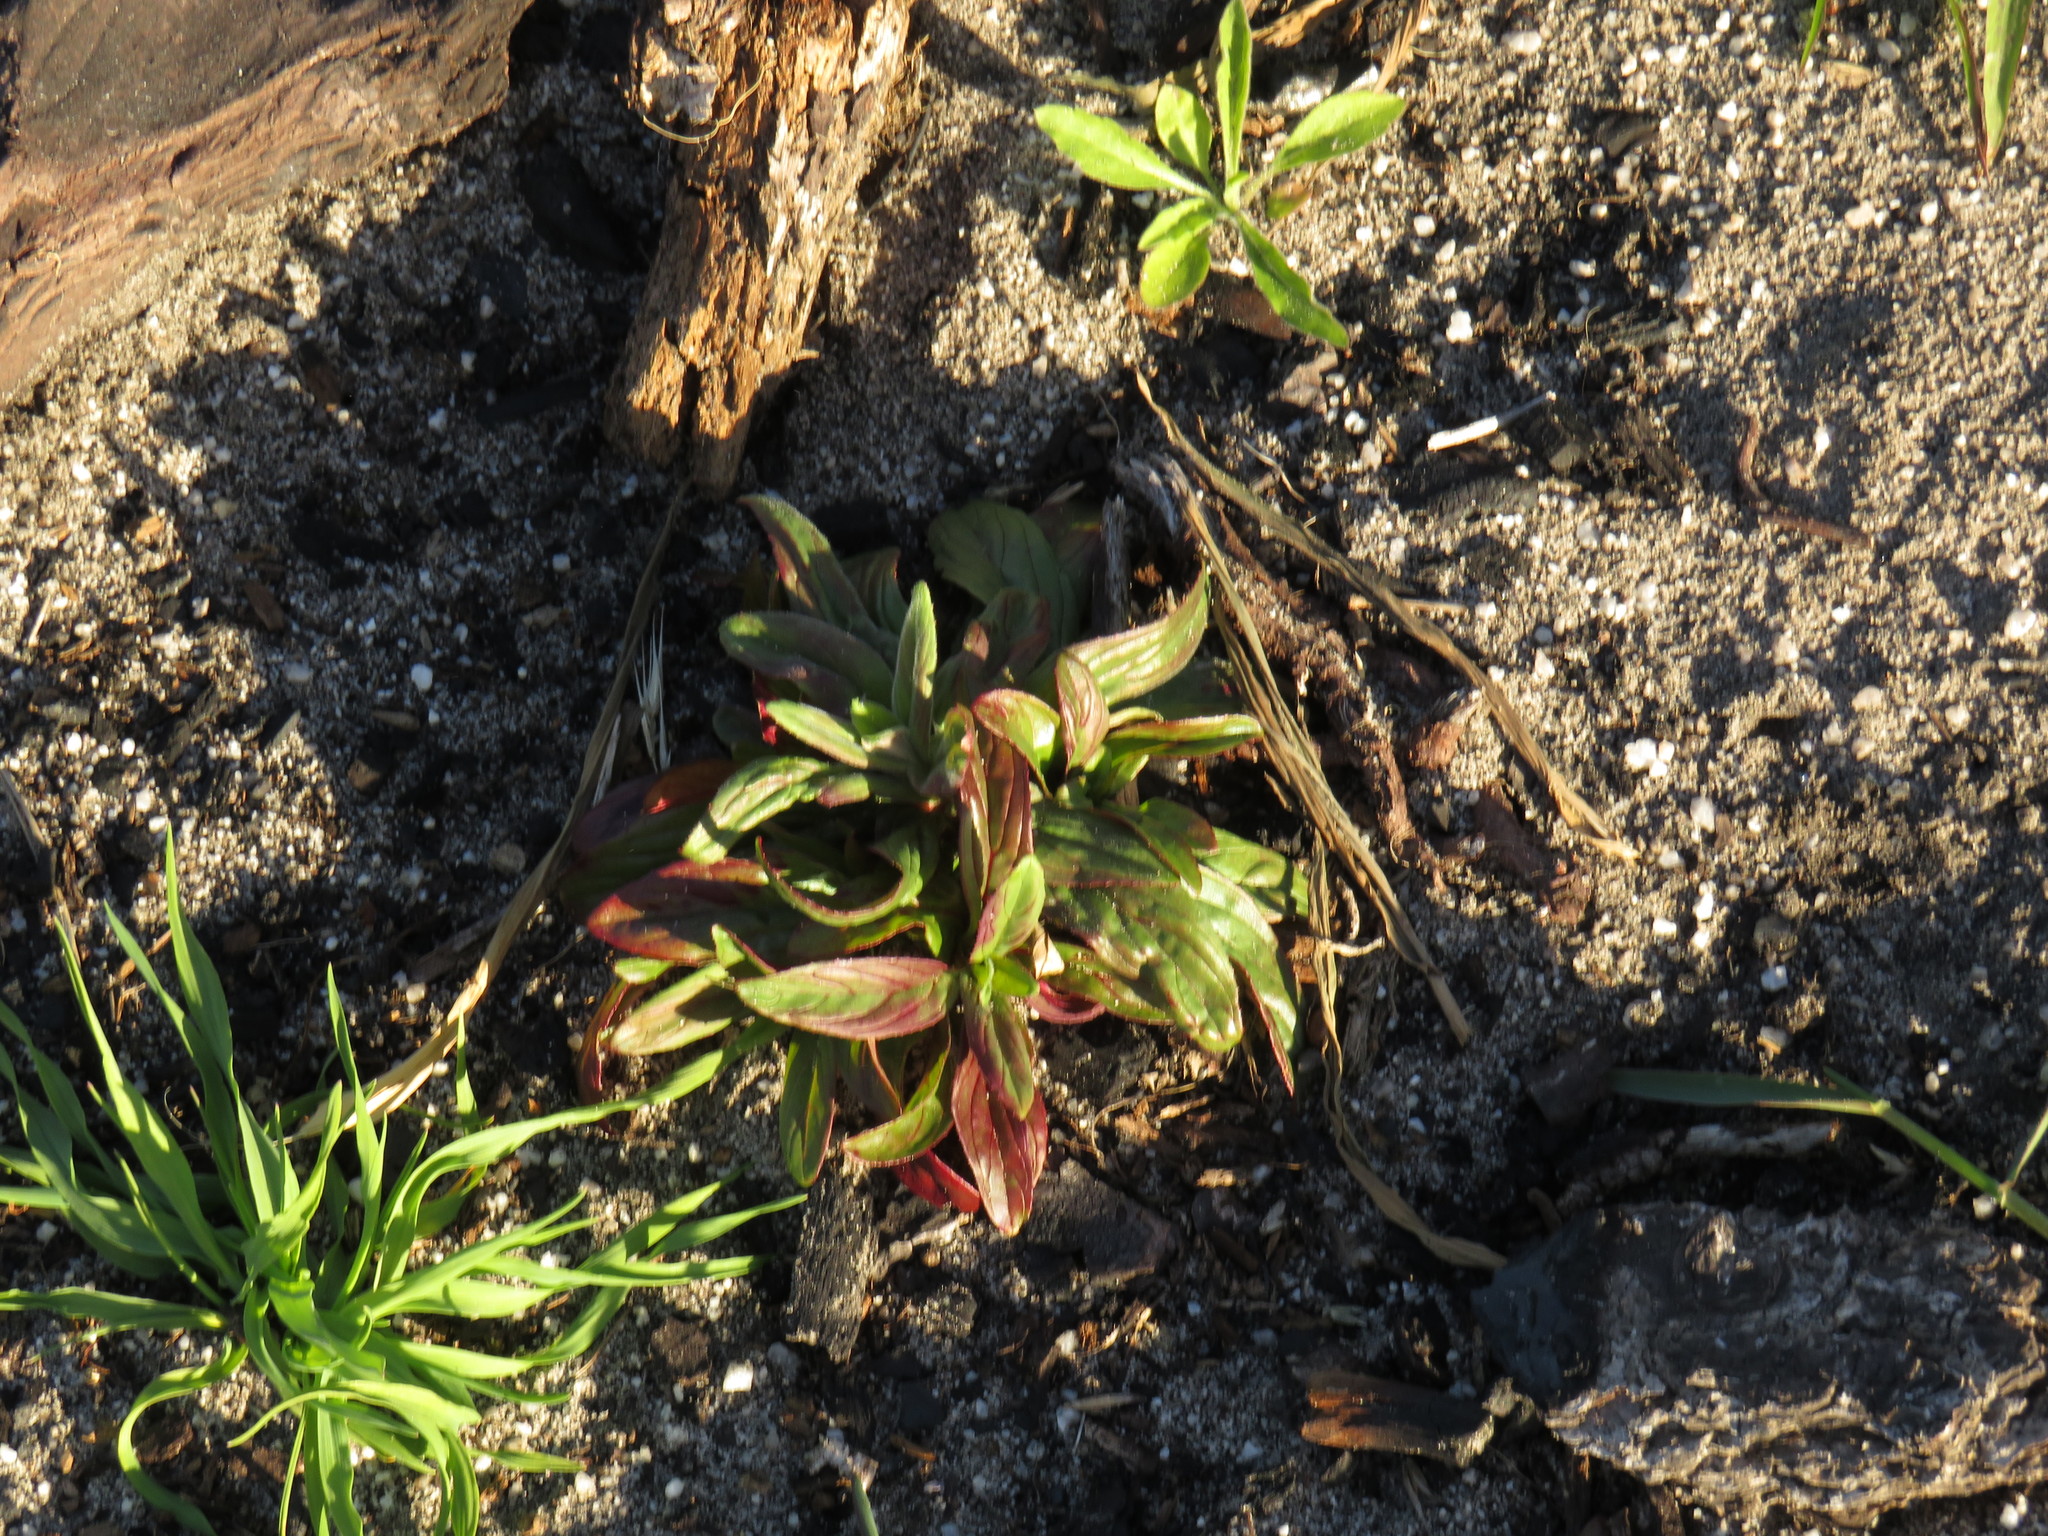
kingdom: Plantae
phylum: Tracheophyta
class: Magnoliopsida
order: Myrtales
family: Onagraceae
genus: Epilobium
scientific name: Epilobium tetragonum
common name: Square-stemmed willowherb
